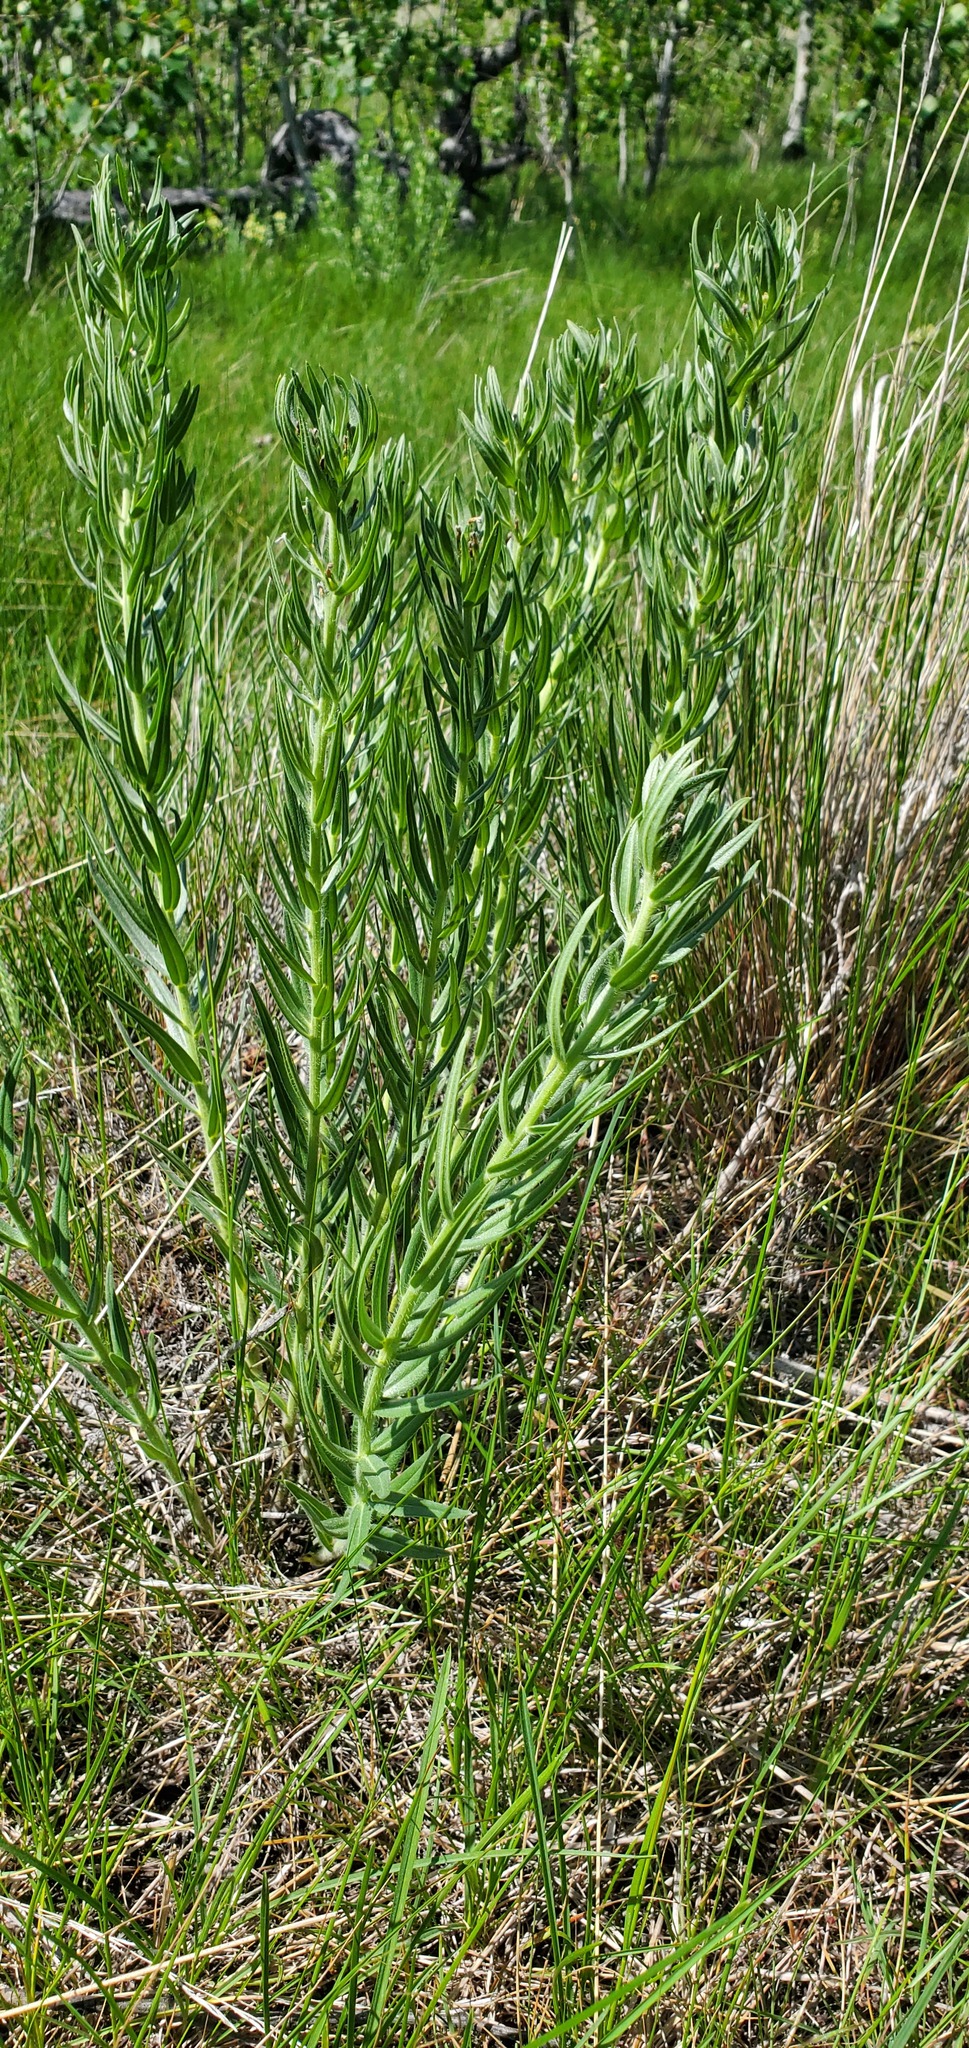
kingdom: Plantae
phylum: Tracheophyta
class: Magnoliopsida
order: Boraginales
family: Boraginaceae
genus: Lithospermum
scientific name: Lithospermum ruderale
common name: Western gromwell
